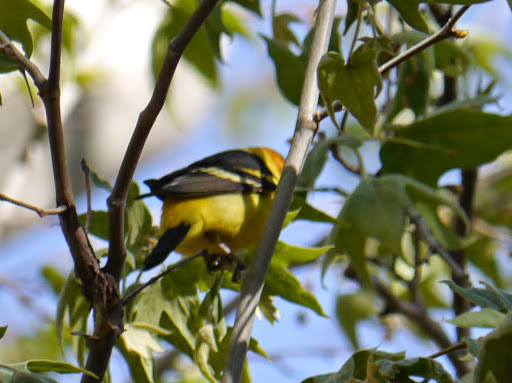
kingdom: Animalia
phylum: Chordata
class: Aves
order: Passeriformes
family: Cardinalidae
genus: Piranga
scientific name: Piranga ludoviciana
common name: Western tanager
